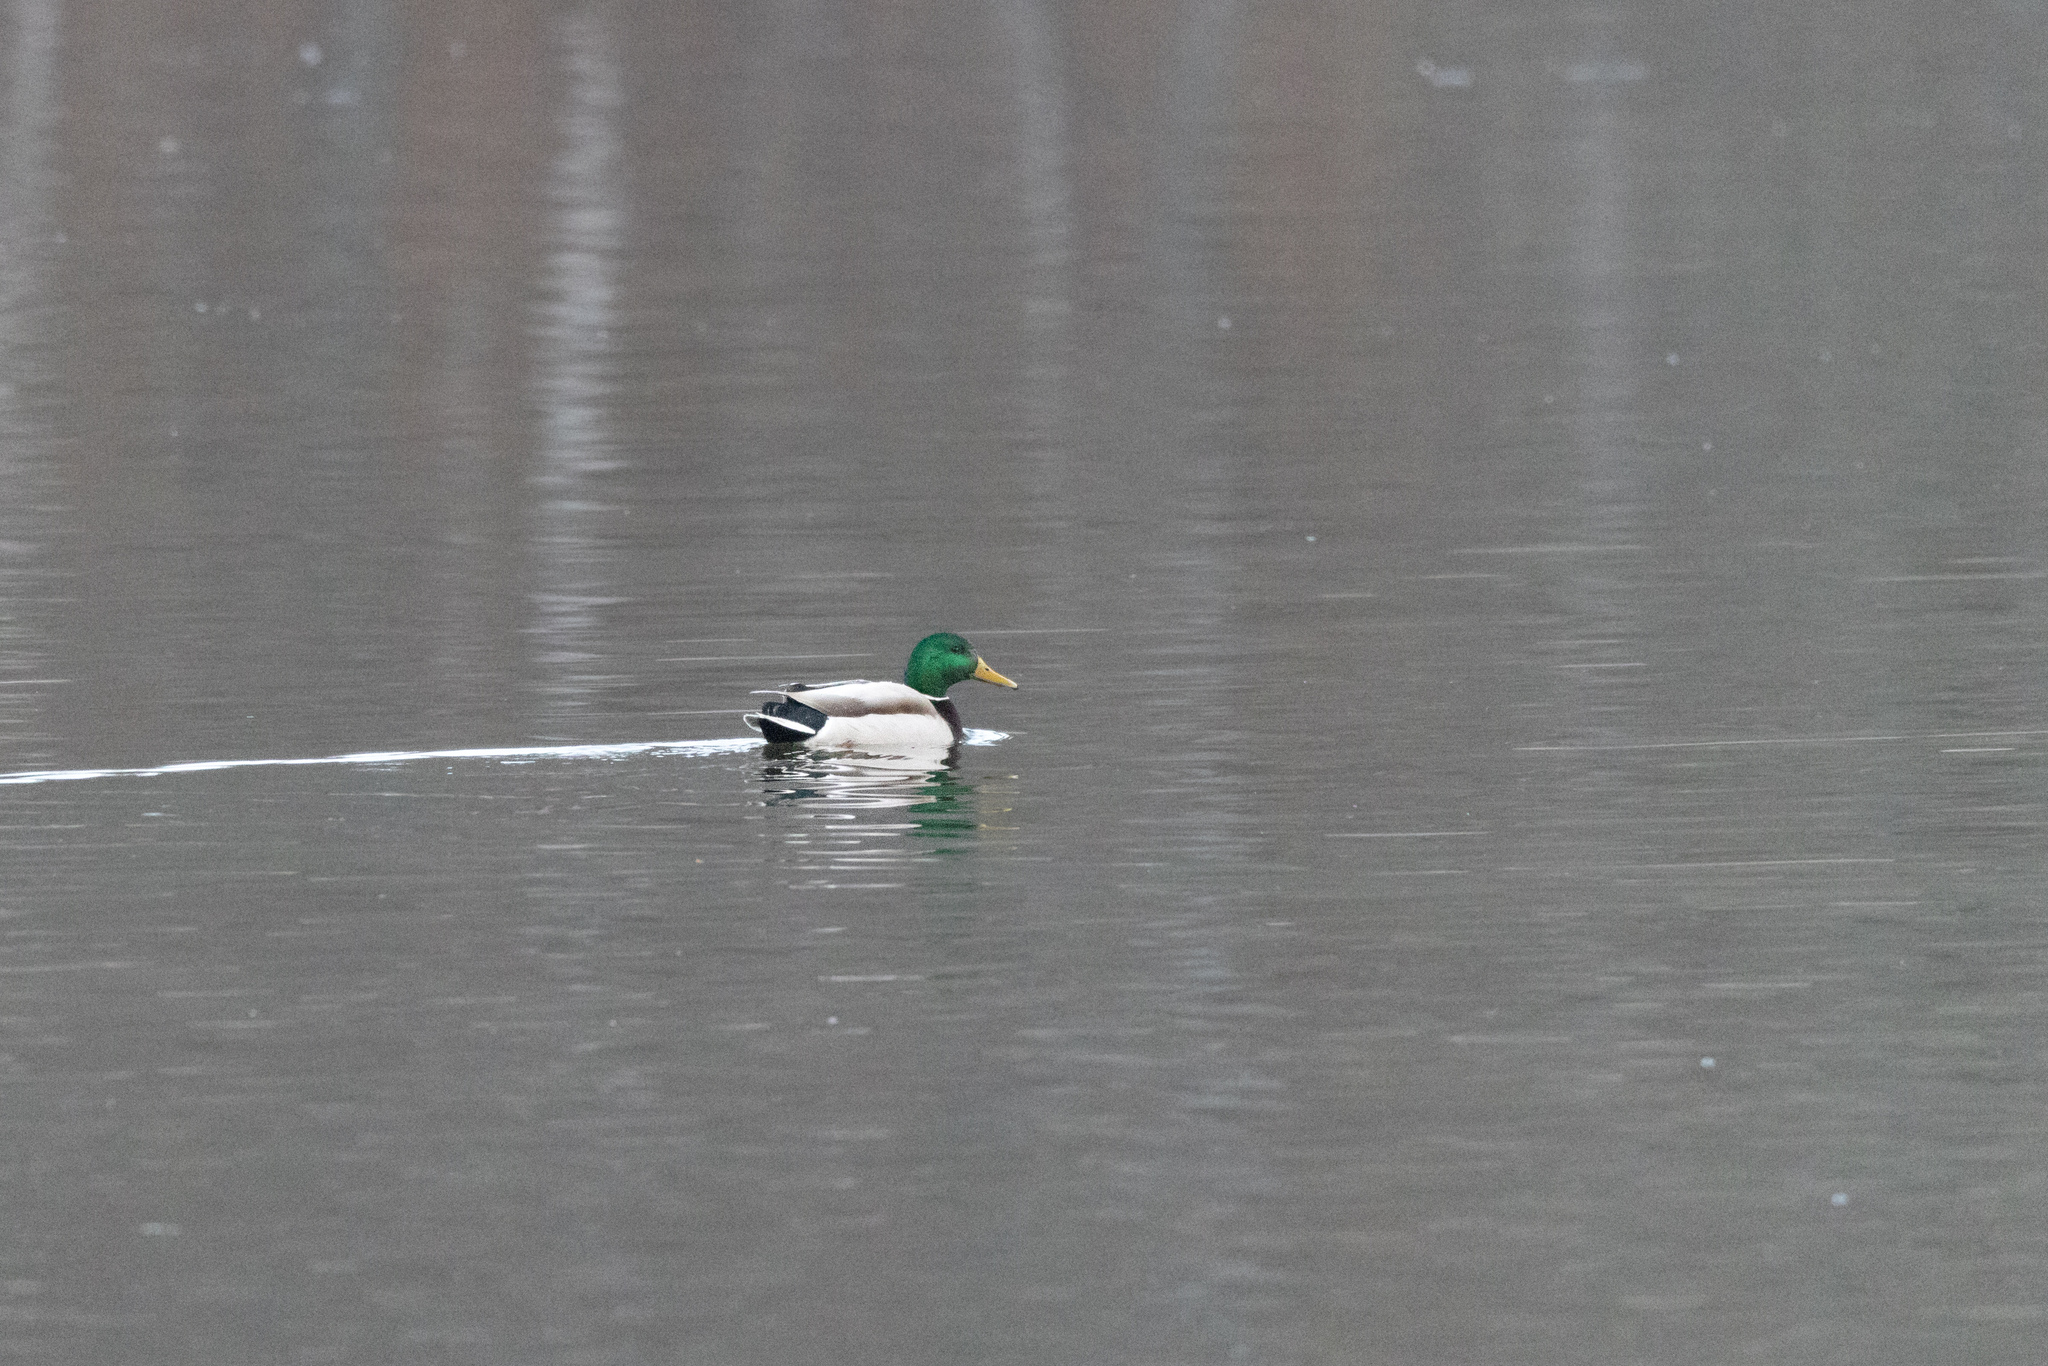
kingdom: Animalia
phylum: Chordata
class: Aves
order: Anseriformes
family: Anatidae
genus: Anas
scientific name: Anas platyrhynchos
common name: Mallard
